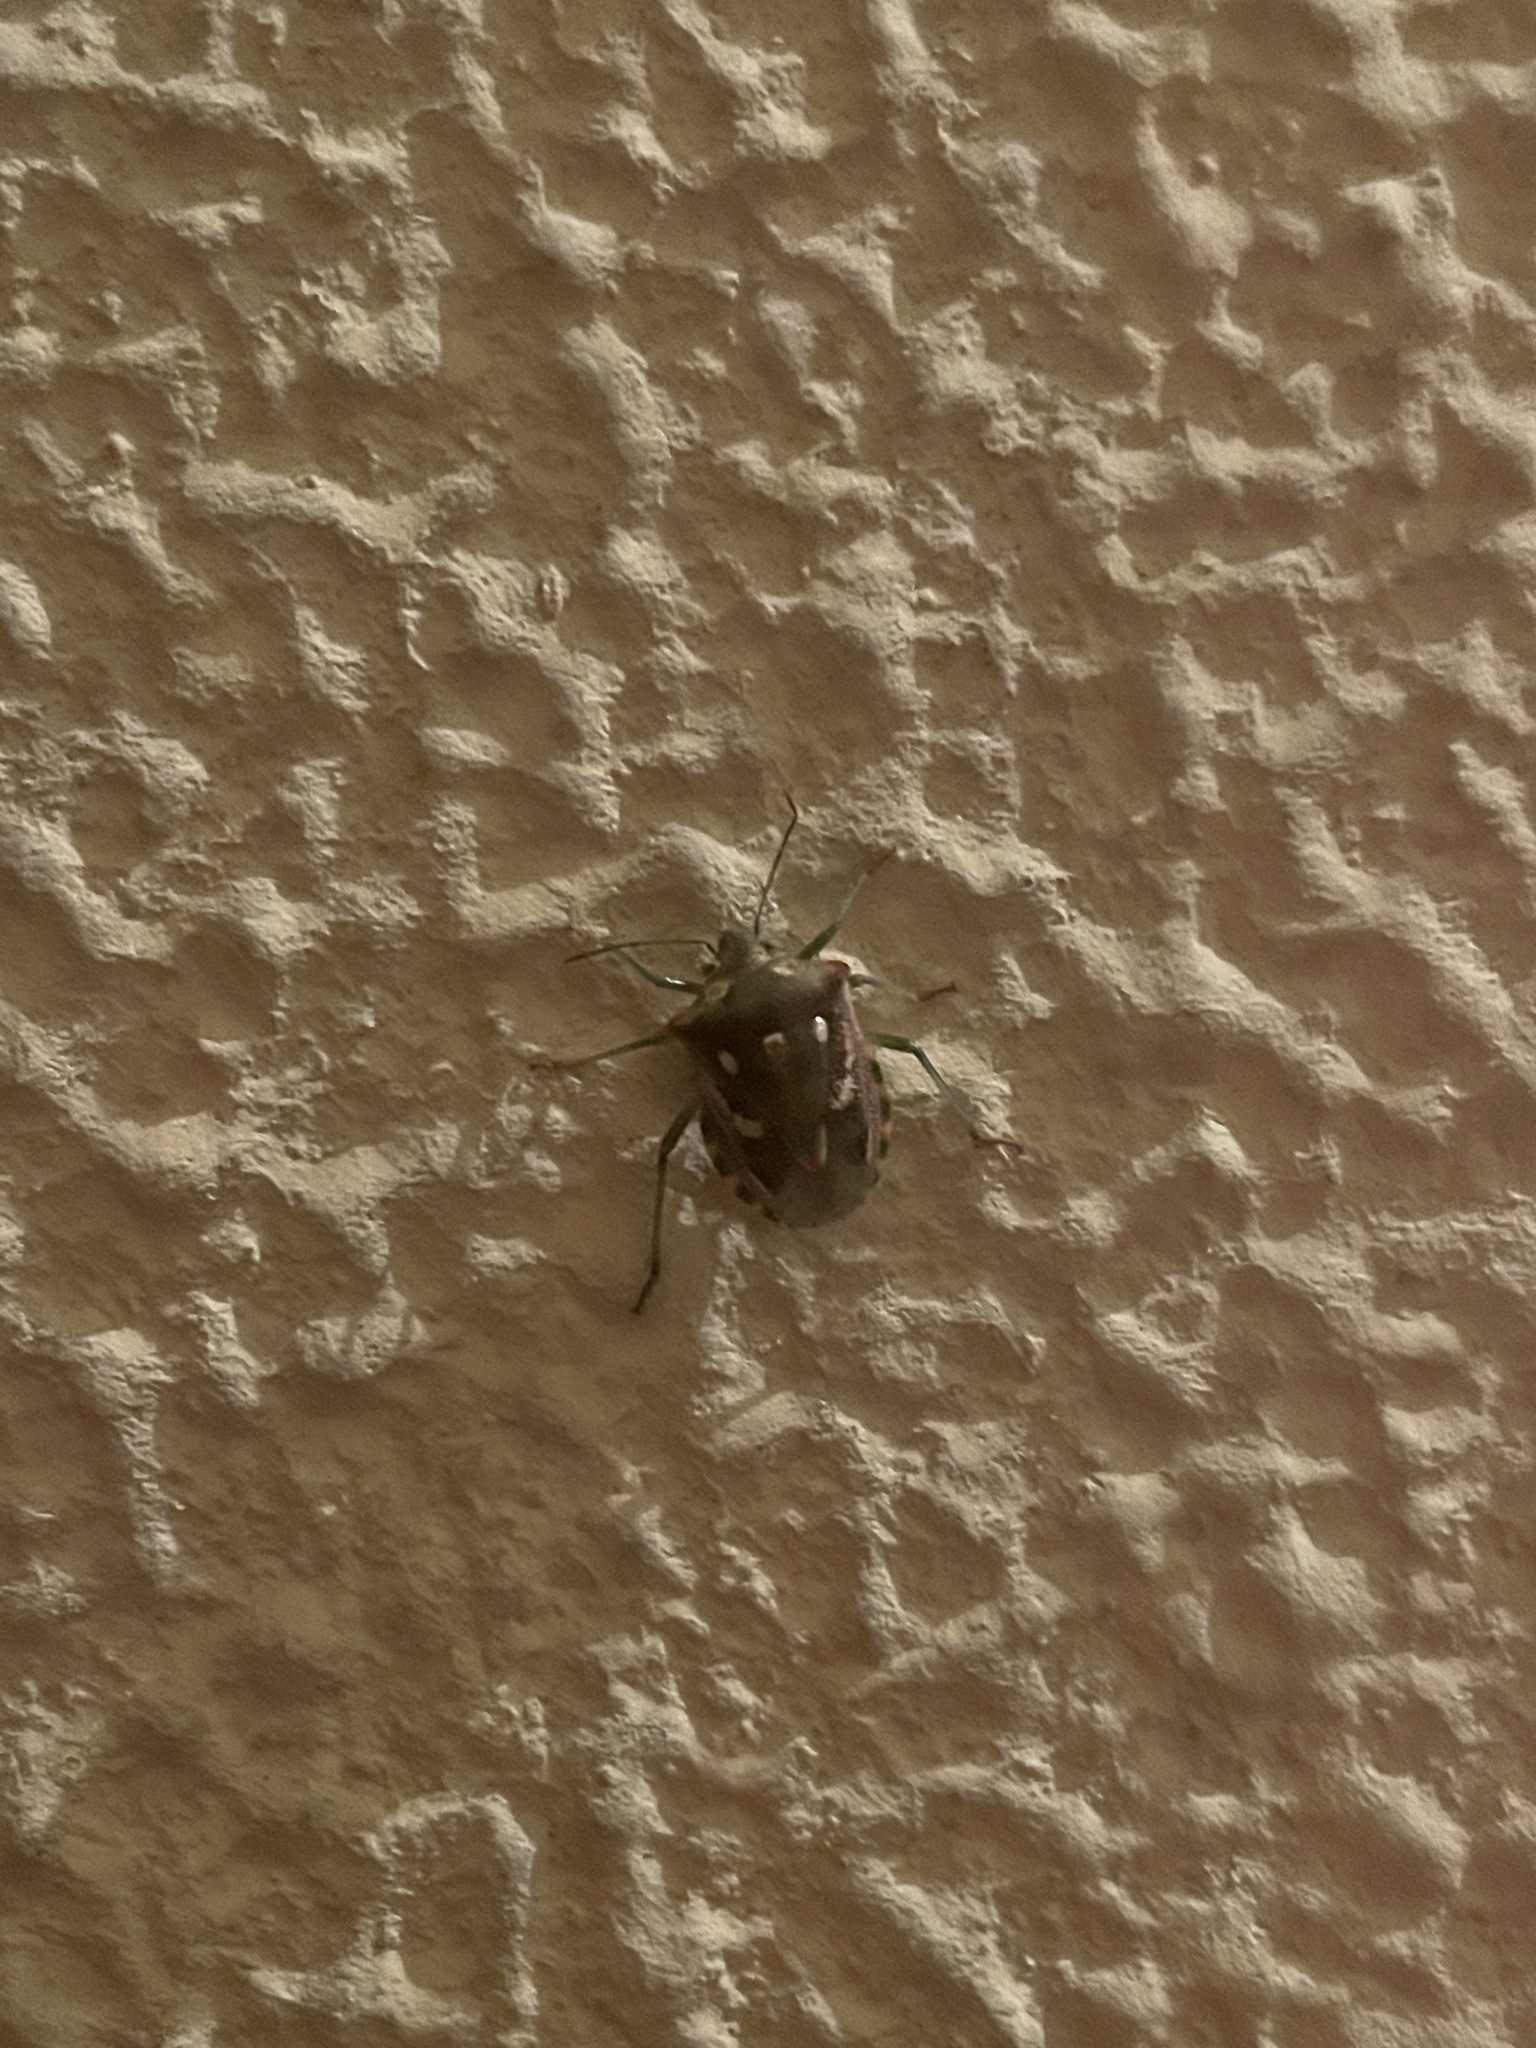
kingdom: Animalia
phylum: Arthropoda
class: Insecta
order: Hemiptera
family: Pentatomidae
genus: Croantha
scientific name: Croantha ornatula
